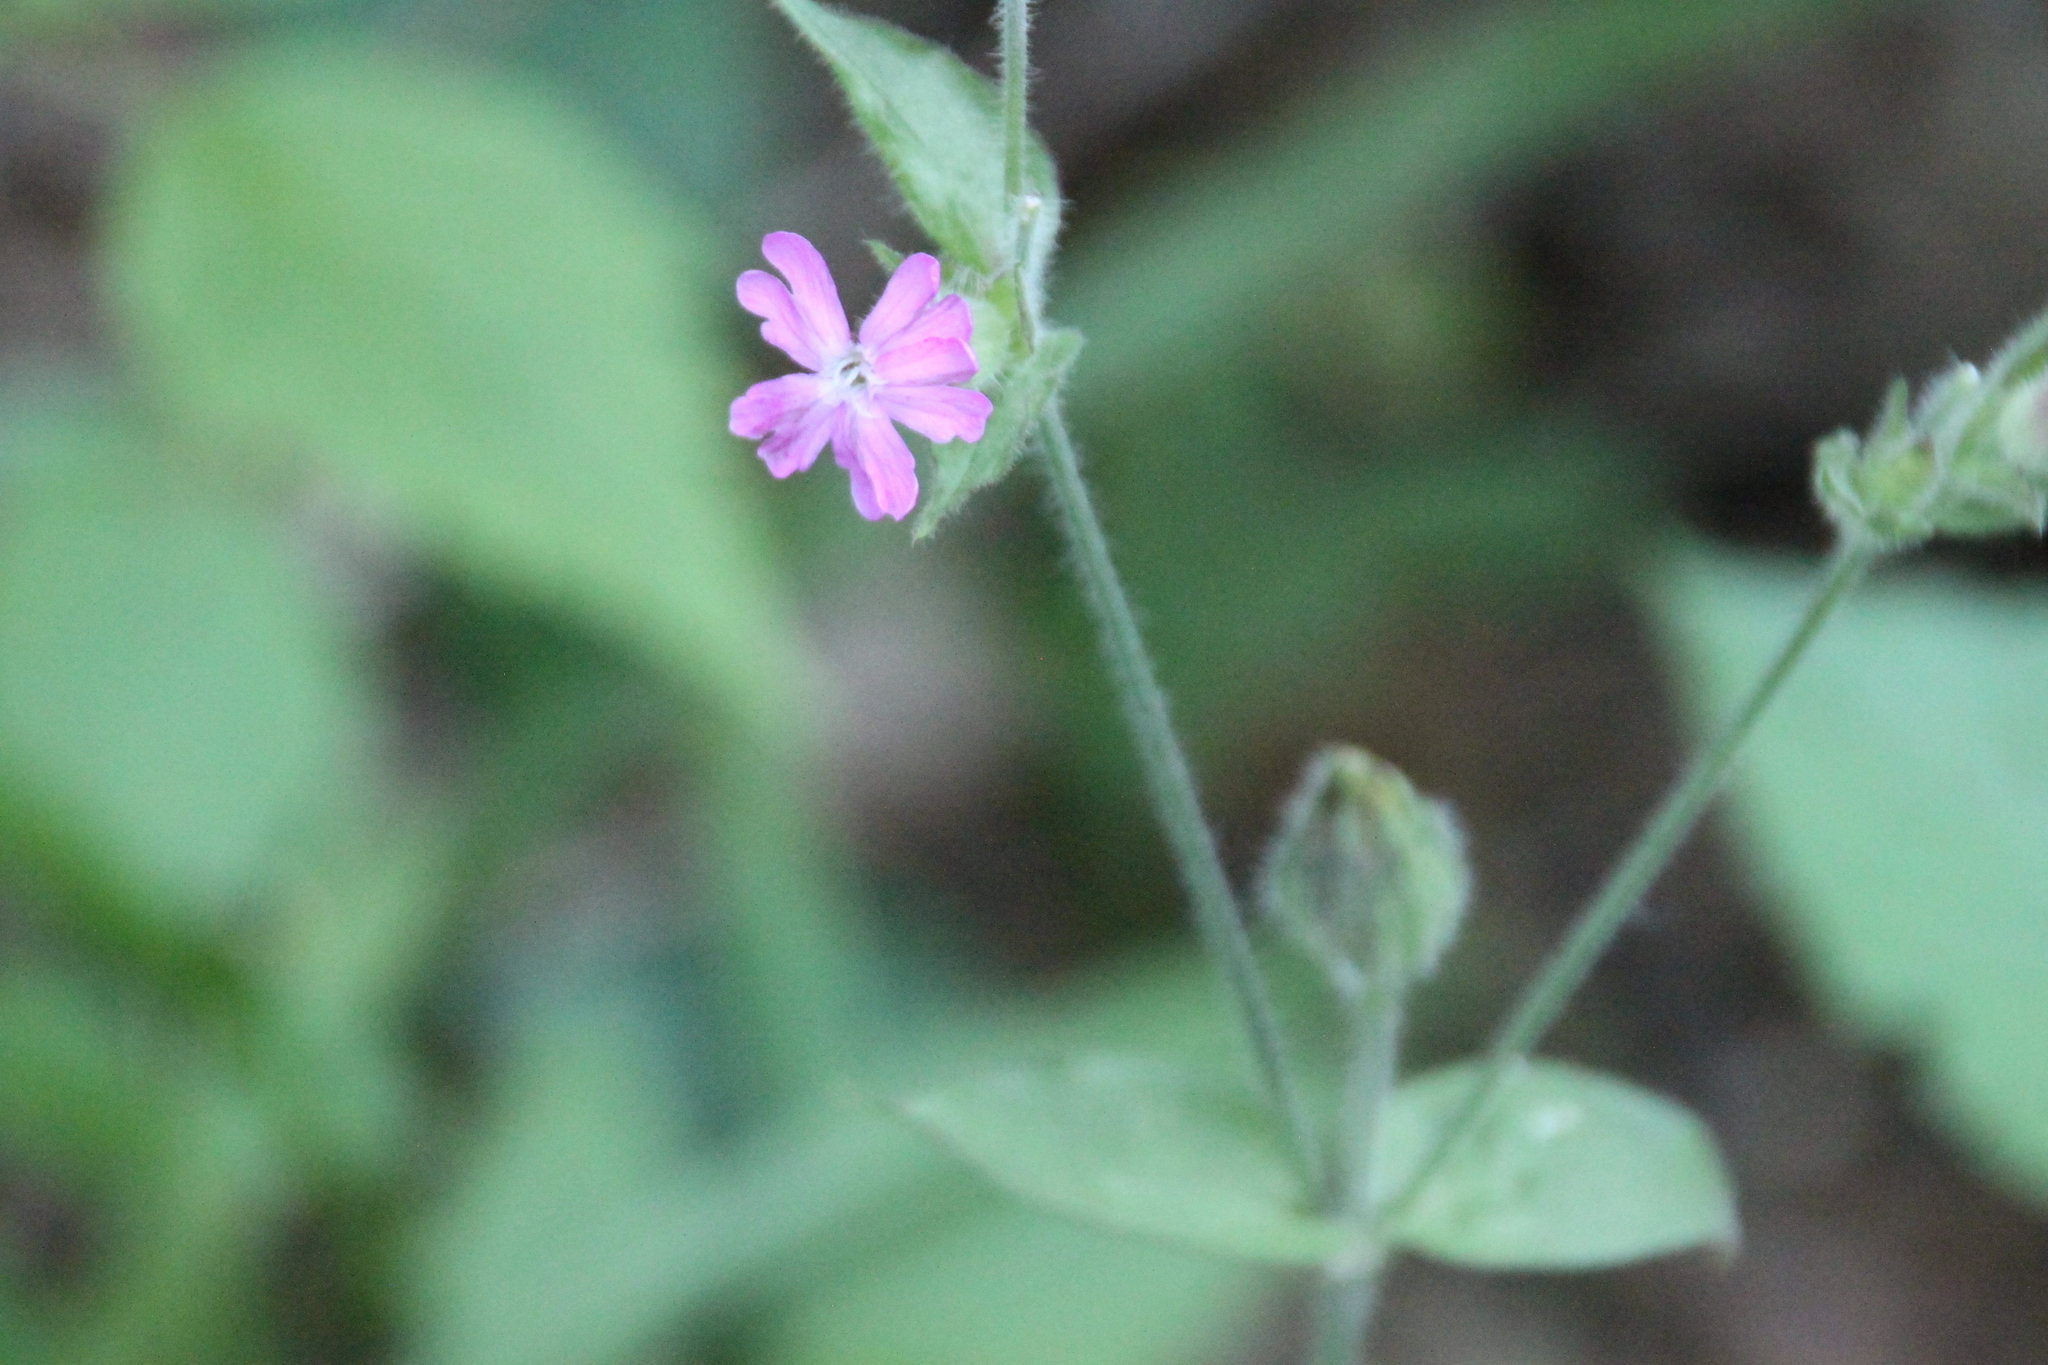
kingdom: Plantae
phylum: Tracheophyta
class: Magnoliopsida
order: Caryophyllales
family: Caryophyllaceae
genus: Silene
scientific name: Silene dioica
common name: Red campion
